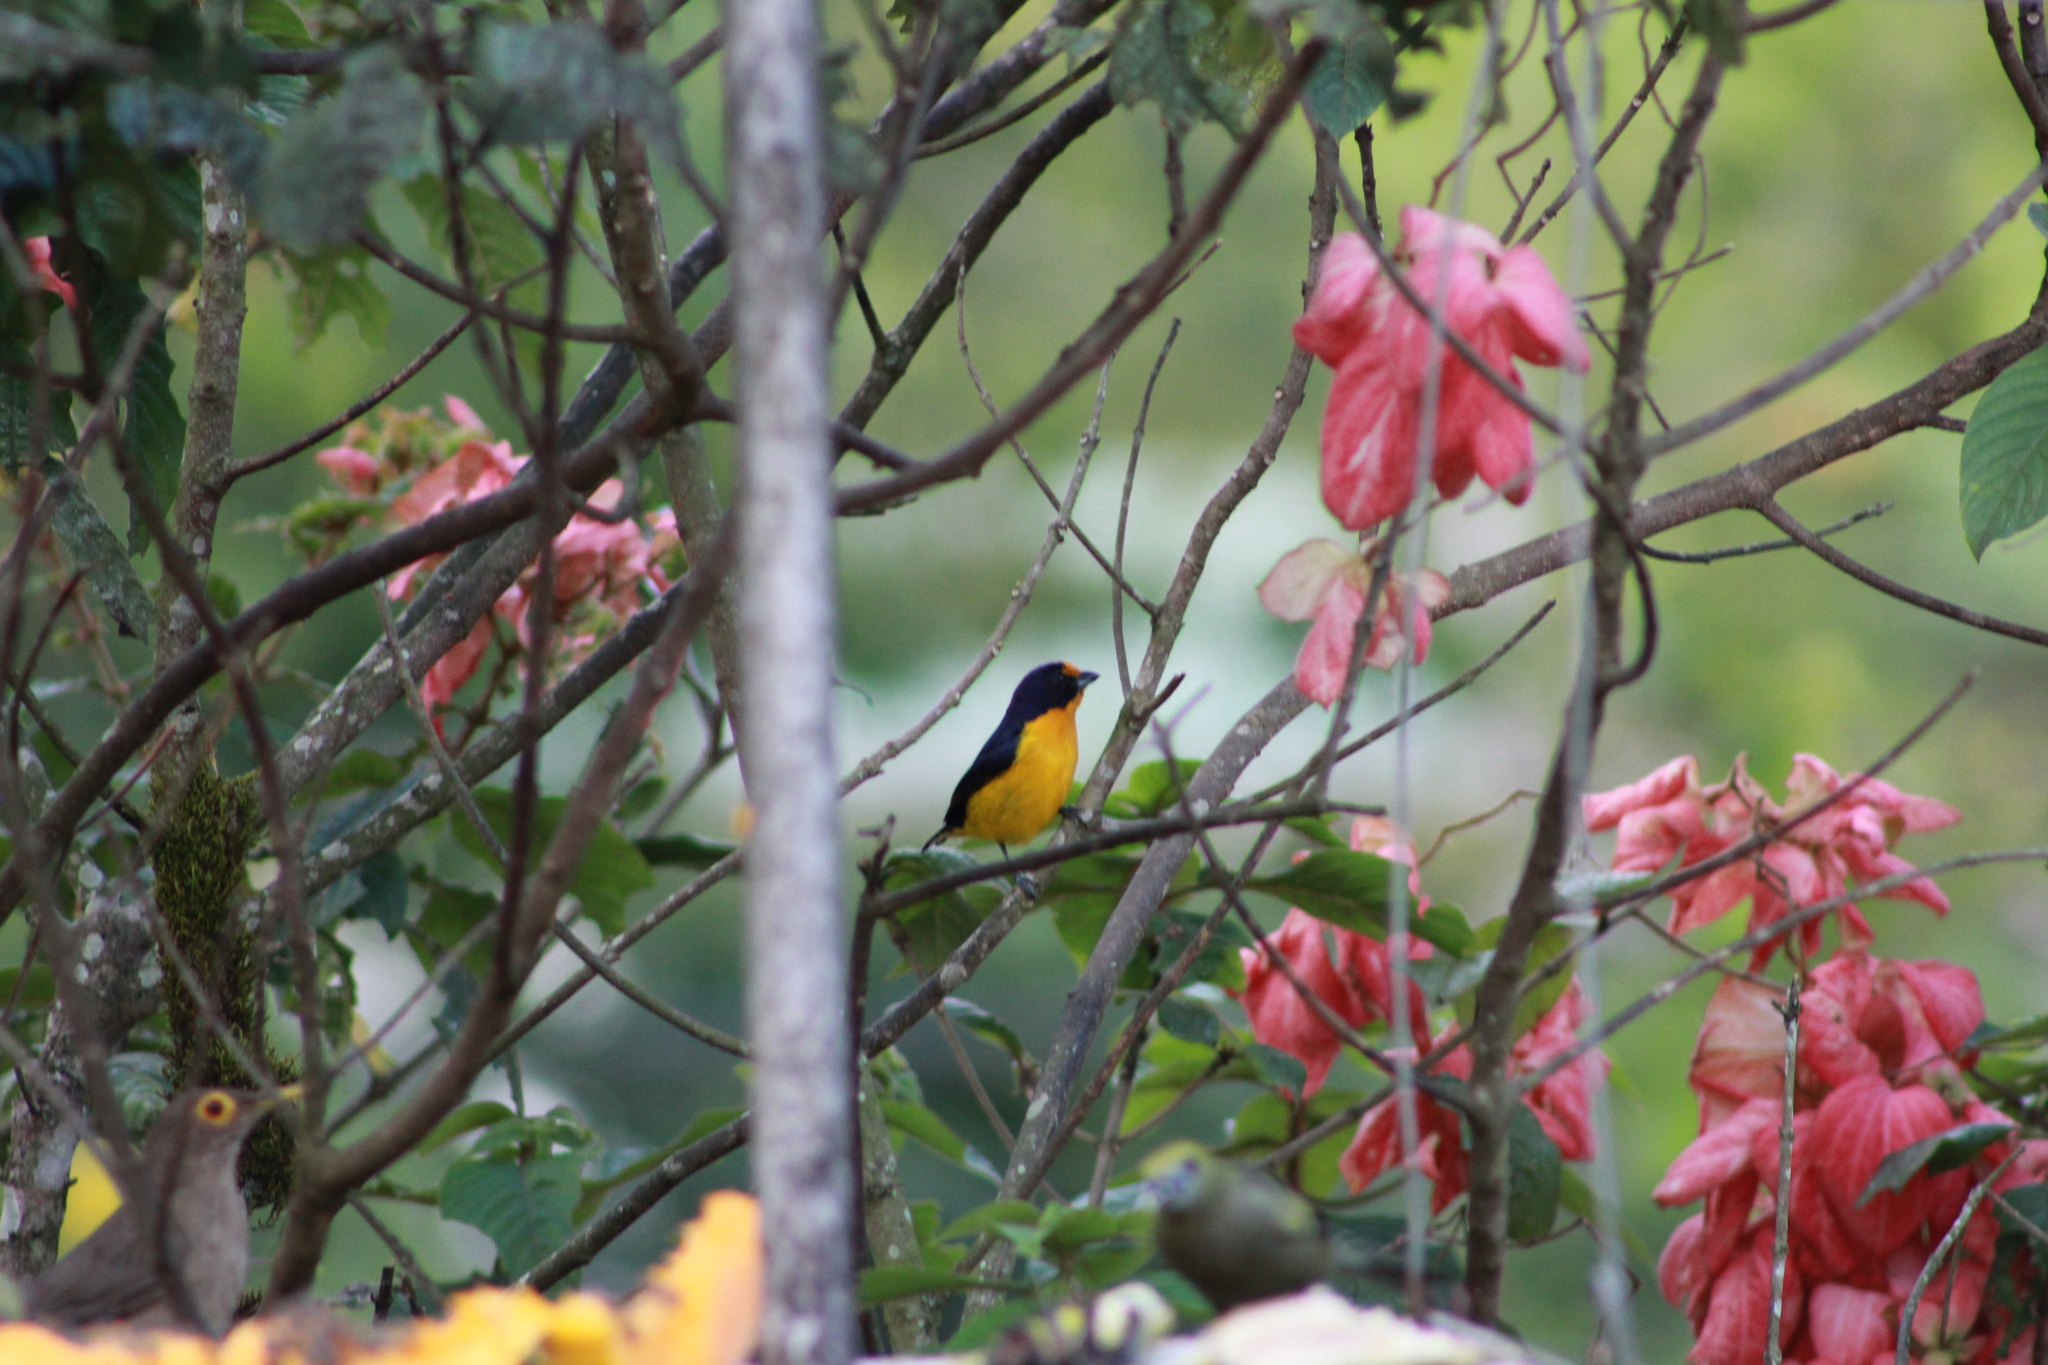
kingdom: Animalia
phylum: Chordata
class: Aves
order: Passeriformes
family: Fringillidae
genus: Euphonia
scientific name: Euphonia violacea
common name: Violaceous euphonia
